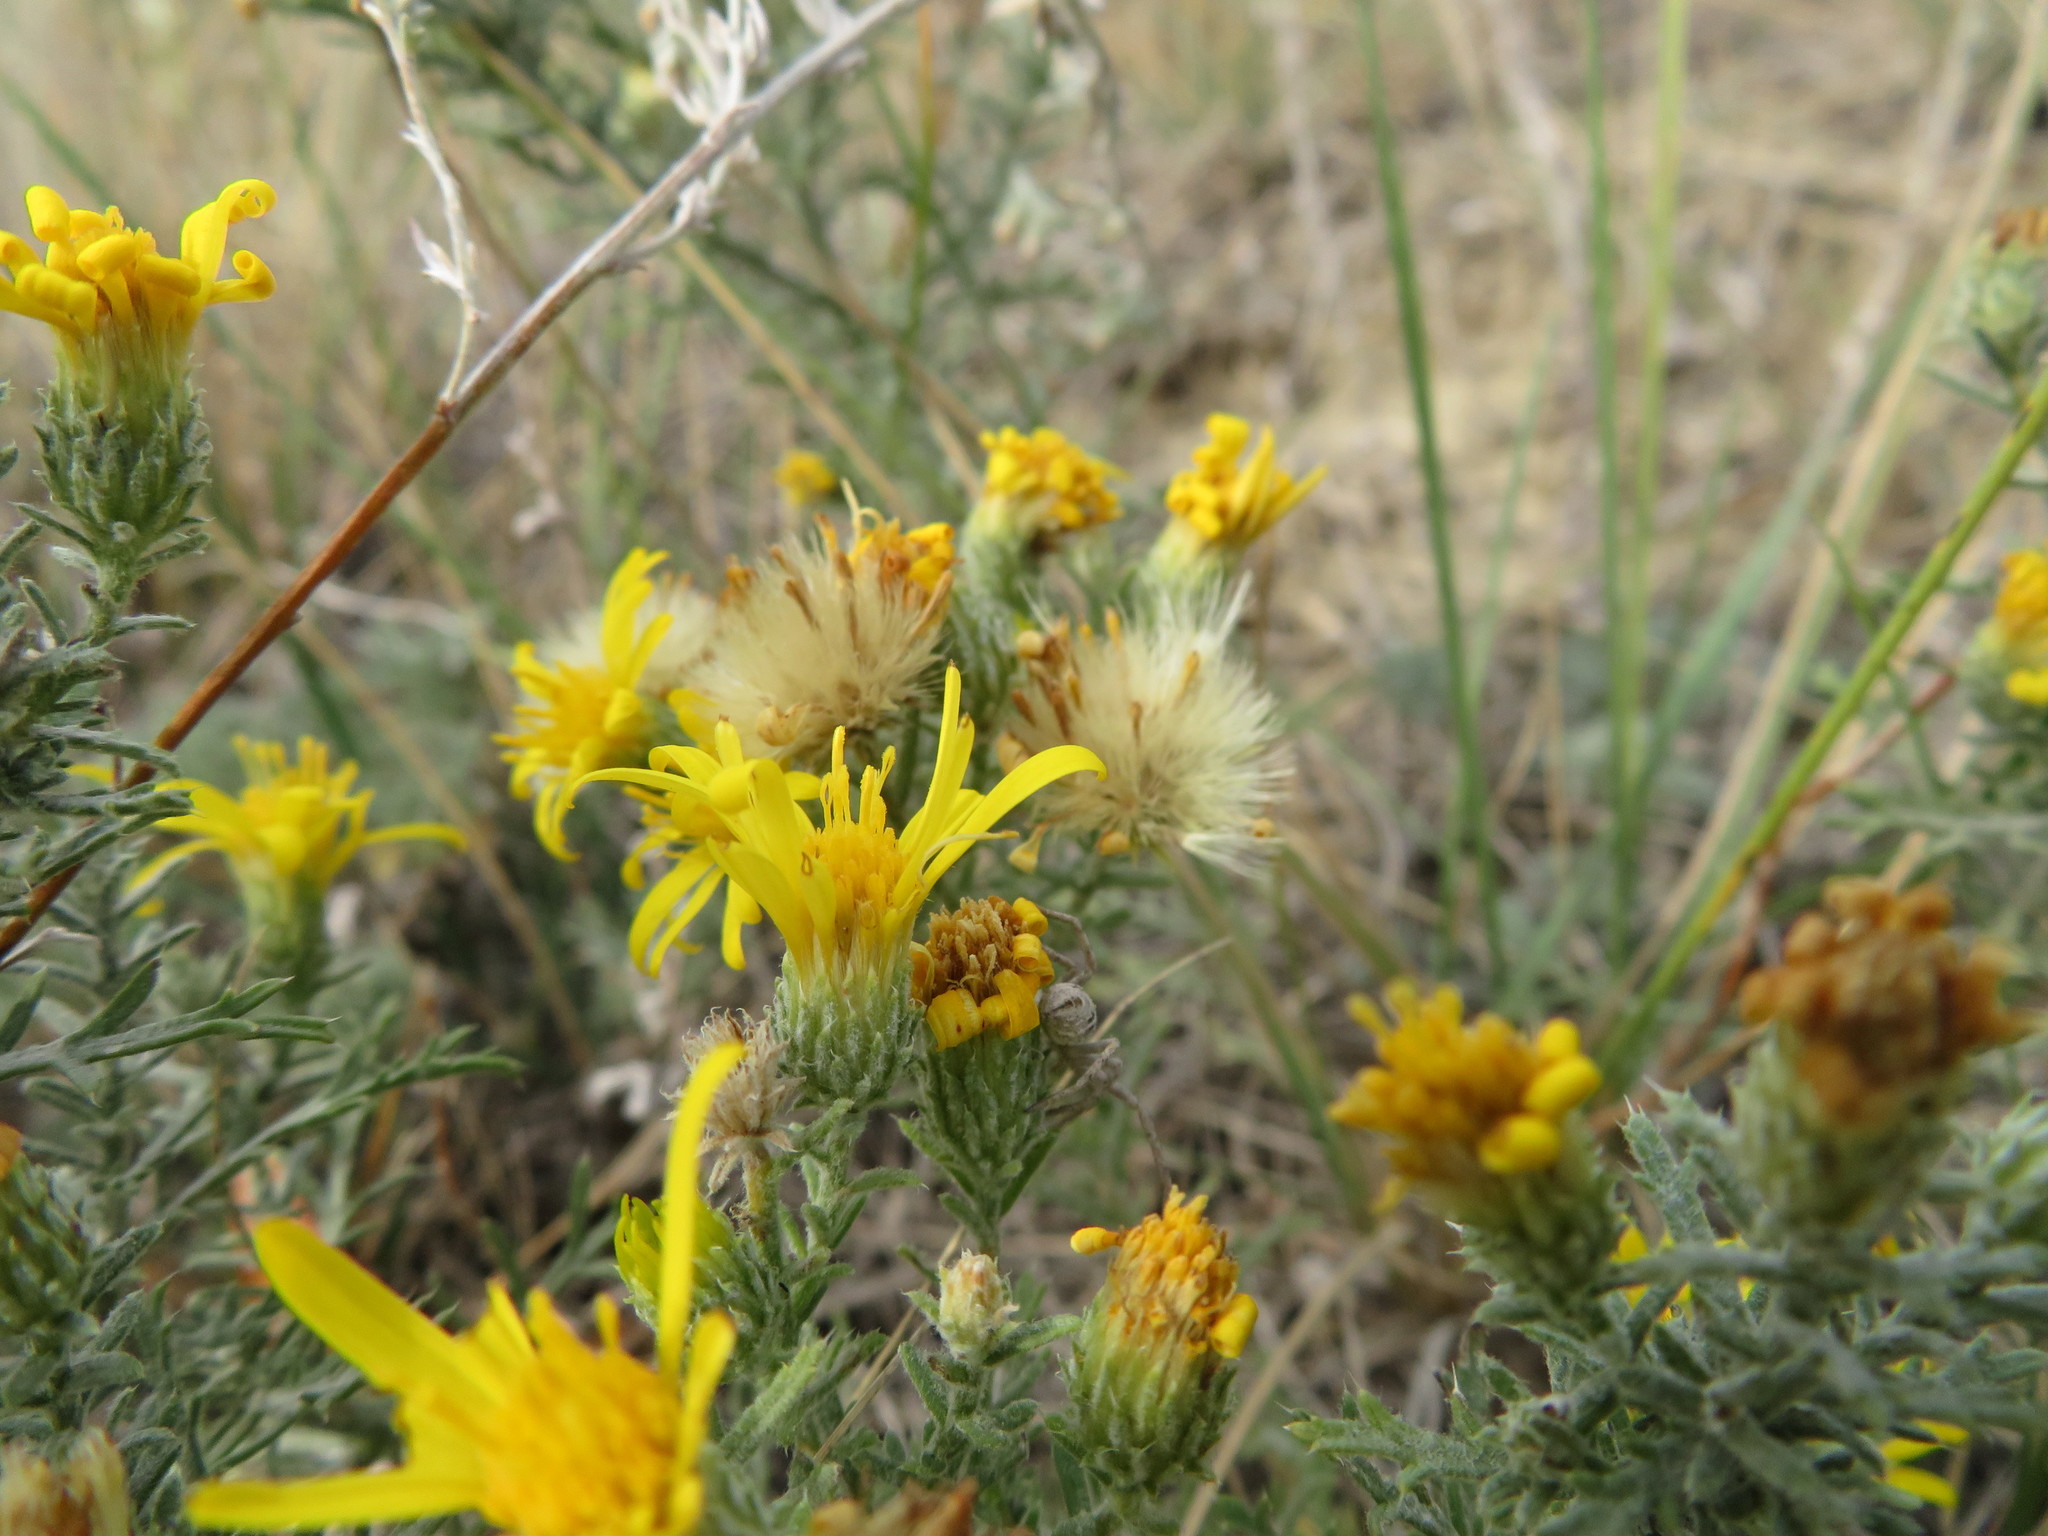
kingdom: Plantae
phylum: Tracheophyta
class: Magnoliopsida
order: Asterales
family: Asteraceae
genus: Xanthisma
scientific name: Xanthisma spinulosum
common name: Spiny goldenweed
